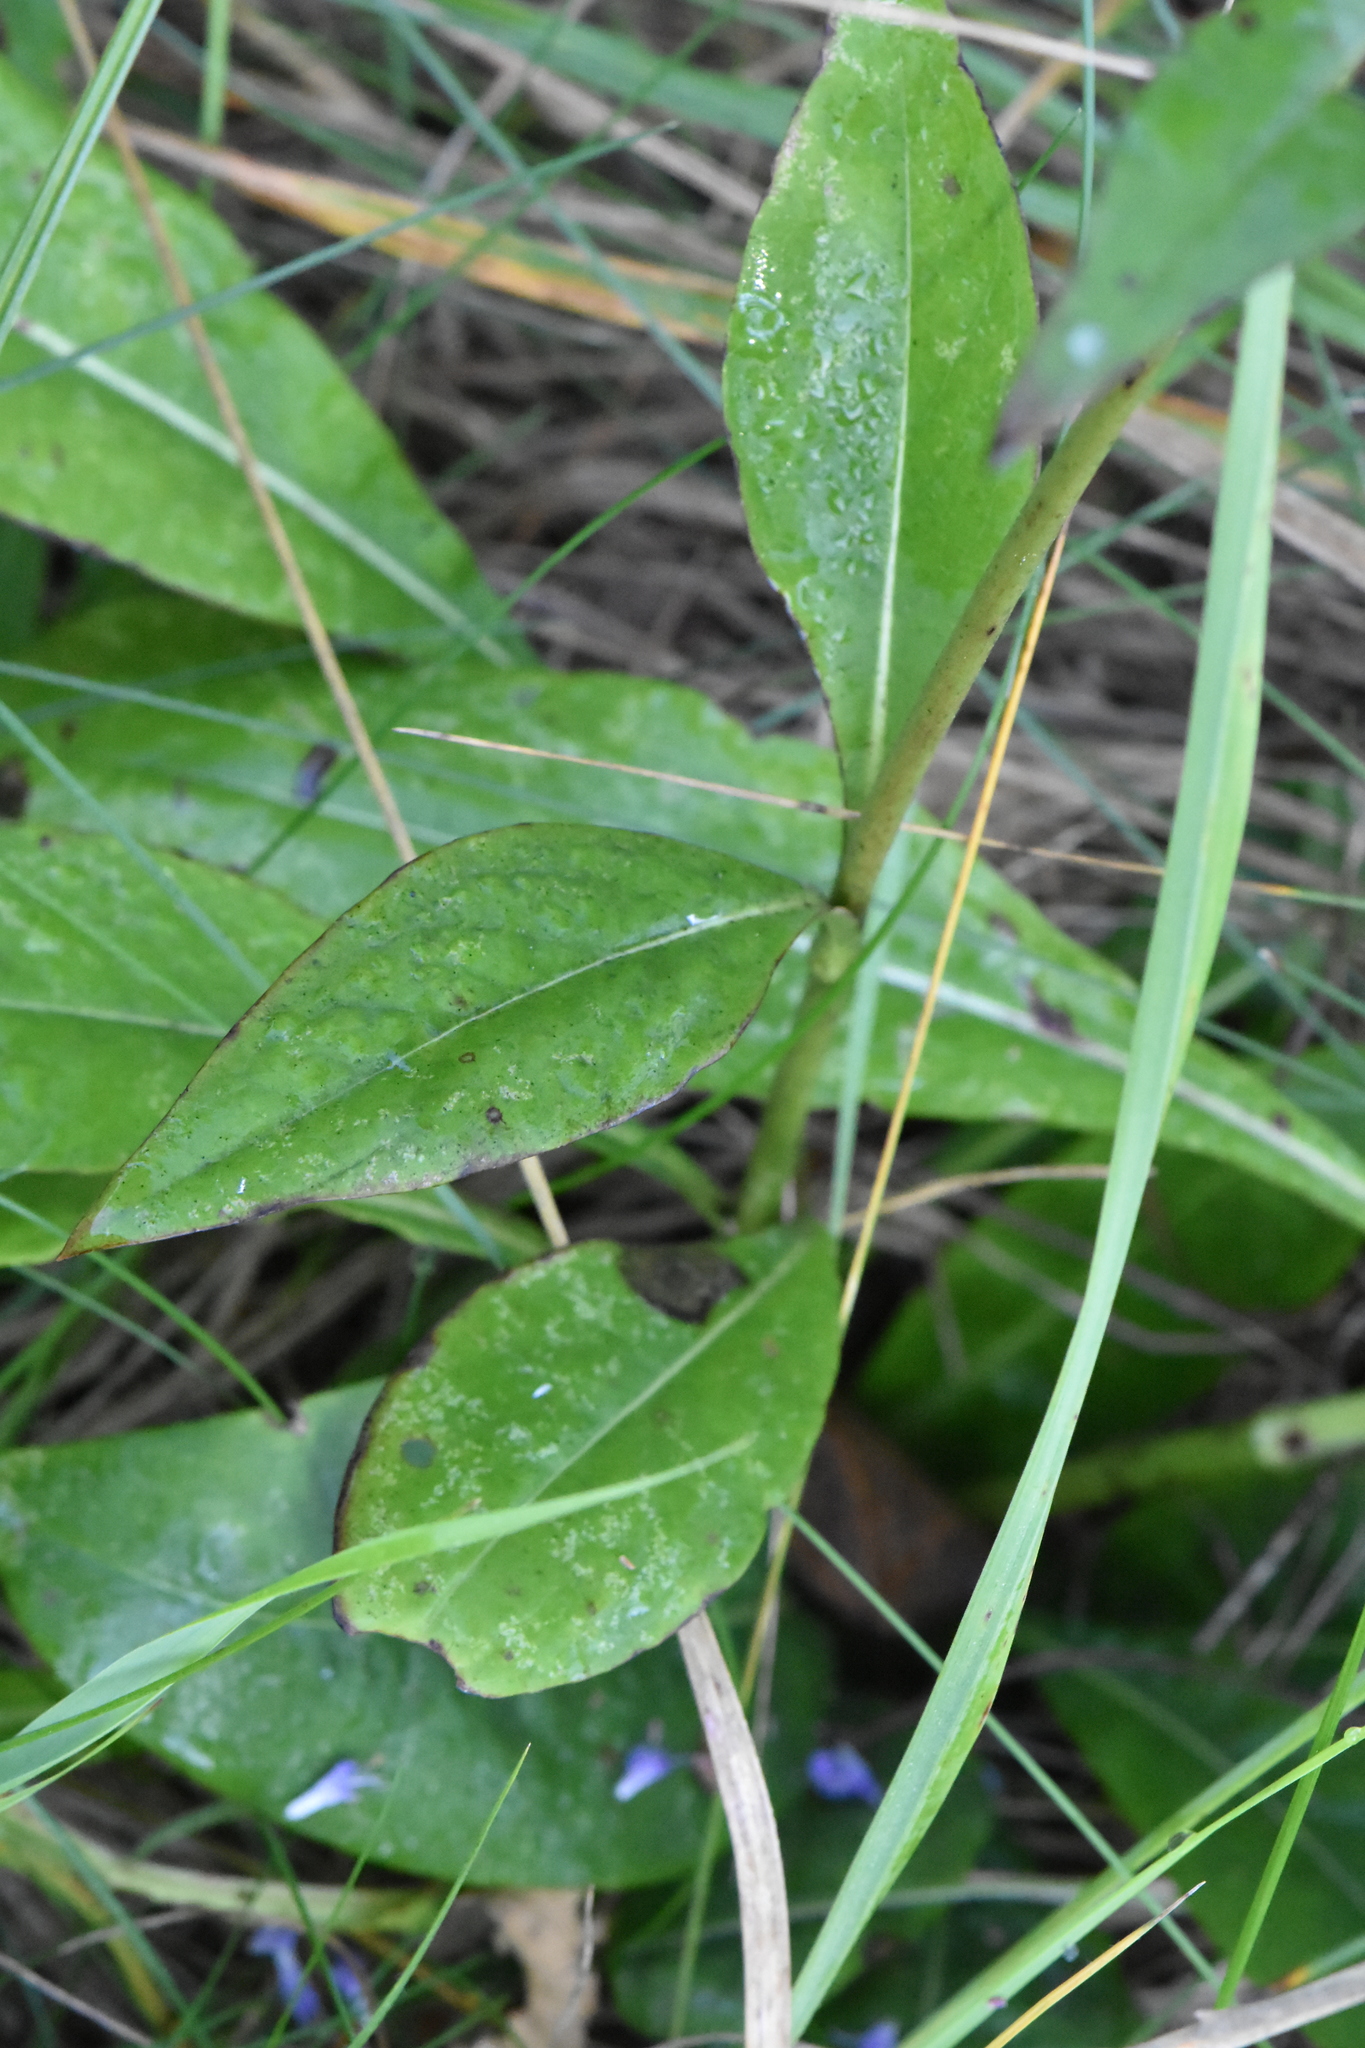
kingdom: Plantae
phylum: Tracheophyta
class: Magnoliopsida
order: Dipsacales
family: Caprifoliaceae
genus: Succisa
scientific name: Succisa pratensis
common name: Devil's-bit
